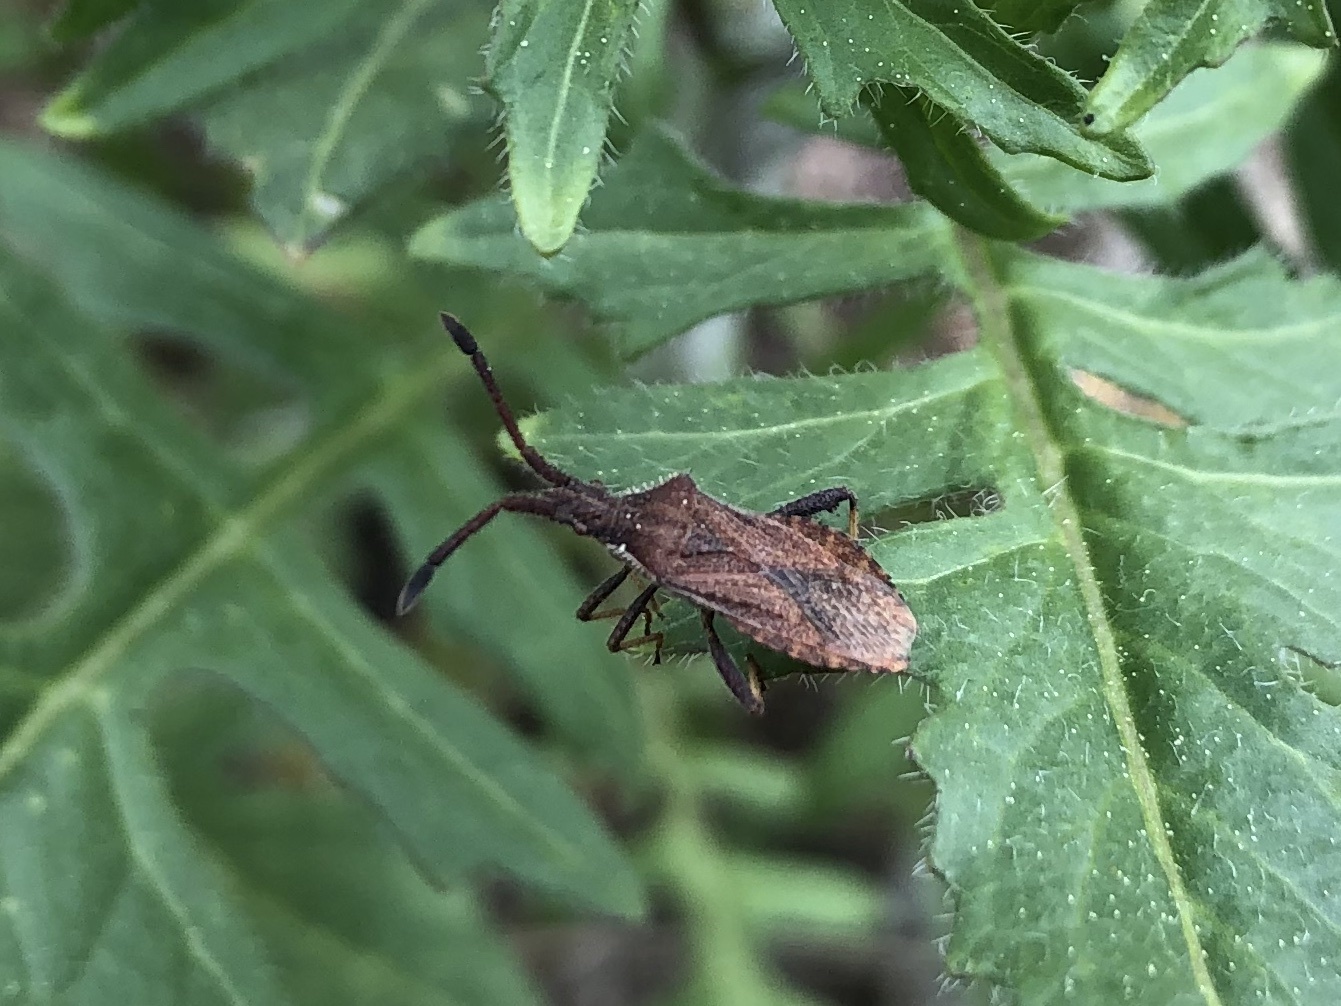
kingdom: Animalia
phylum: Arthropoda
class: Insecta
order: Hemiptera
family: Coreidae
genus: Coriomeris
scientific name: Coriomeris denticulatus
